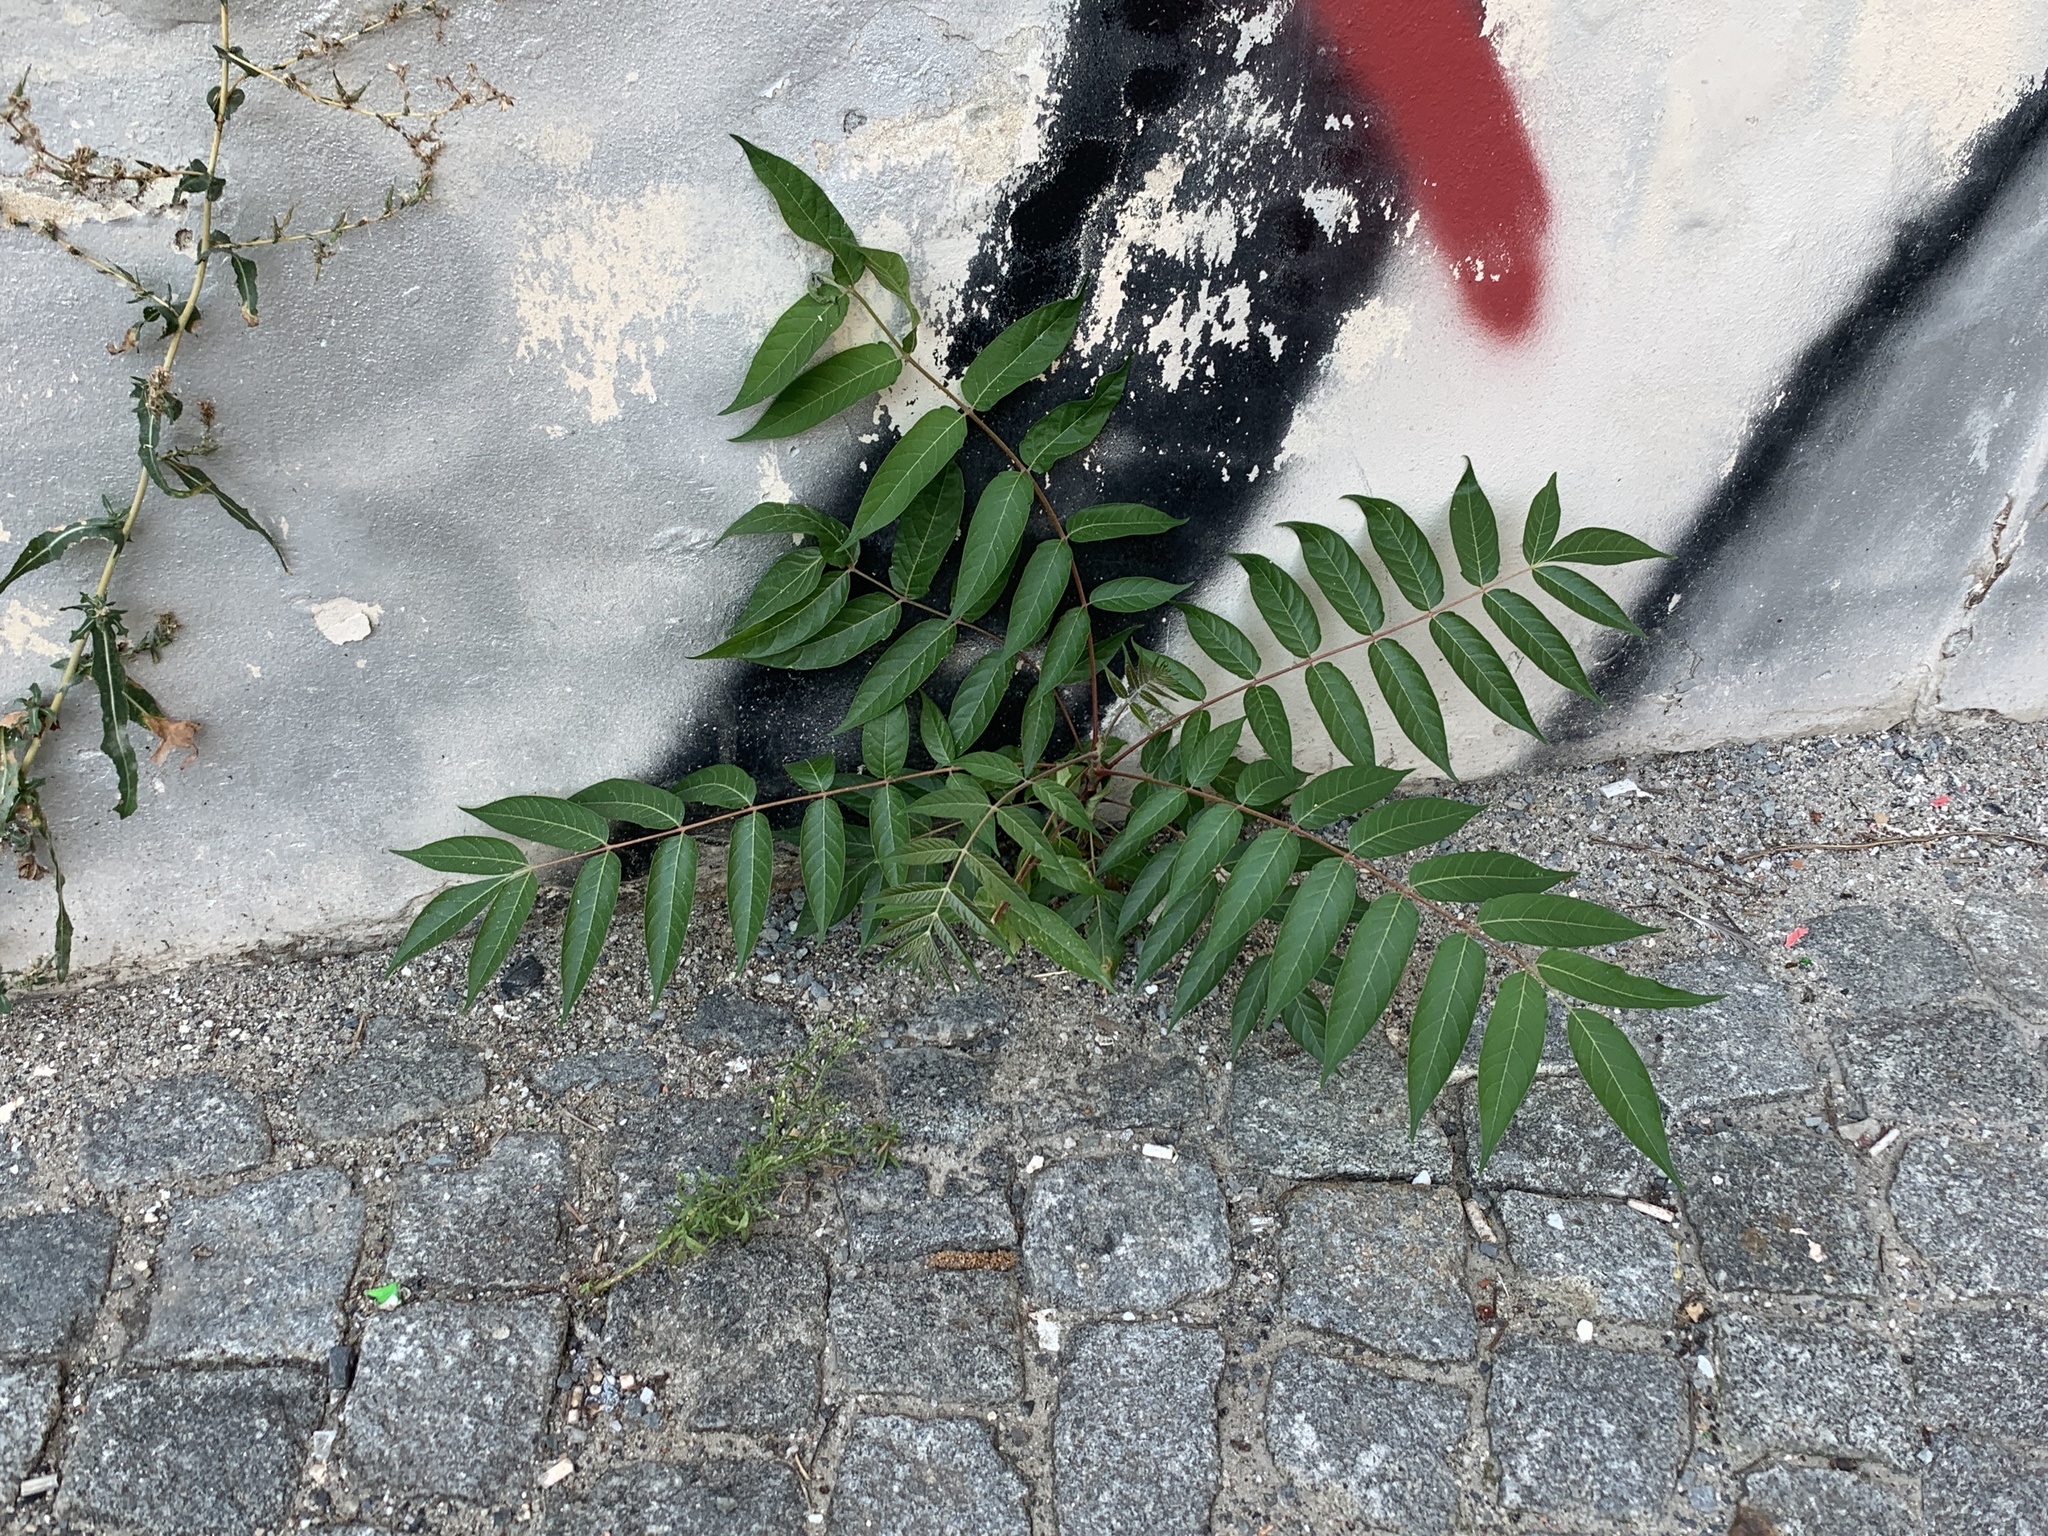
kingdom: Plantae
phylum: Tracheophyta
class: Magnoliopsida
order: Sapindales
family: Simaroubaceae
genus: Ailanthus
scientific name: Ailanthus altissima
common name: Tree-of-heaven
